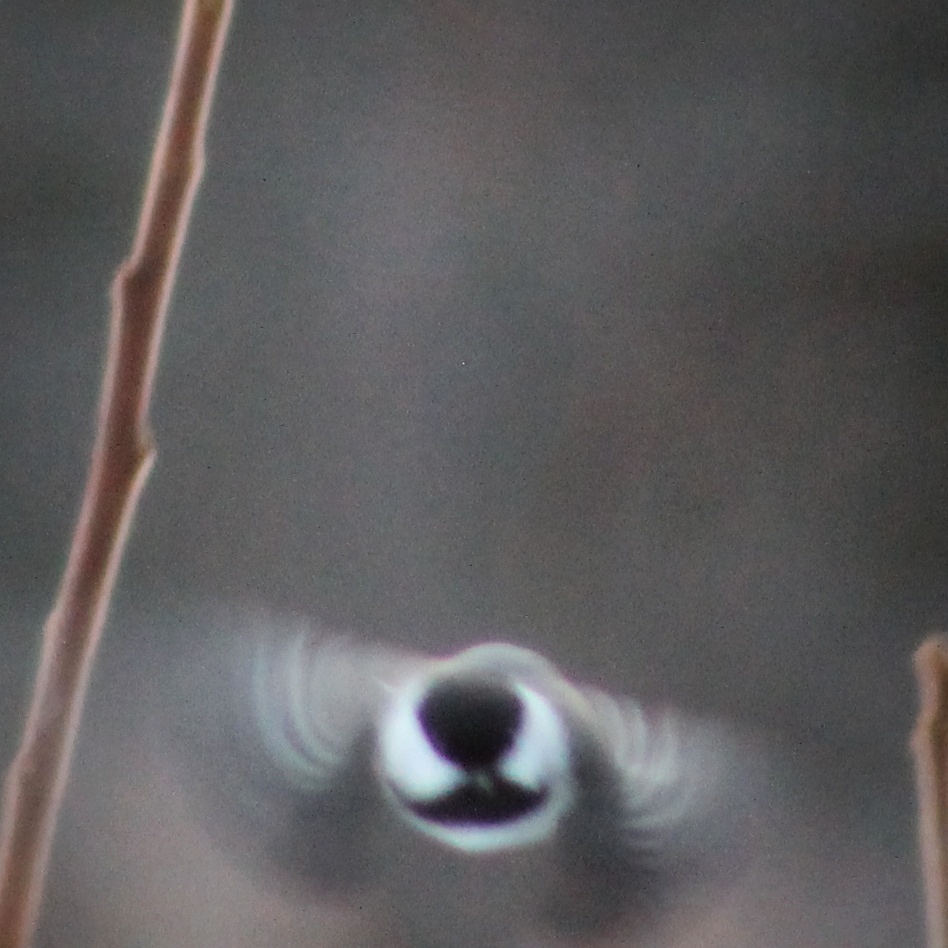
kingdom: Animalia
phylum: Chordata
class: Aves
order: Passeriformes
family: Paridae
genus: Poecile
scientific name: Poecile atricapillus
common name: Black-capped chickadee
